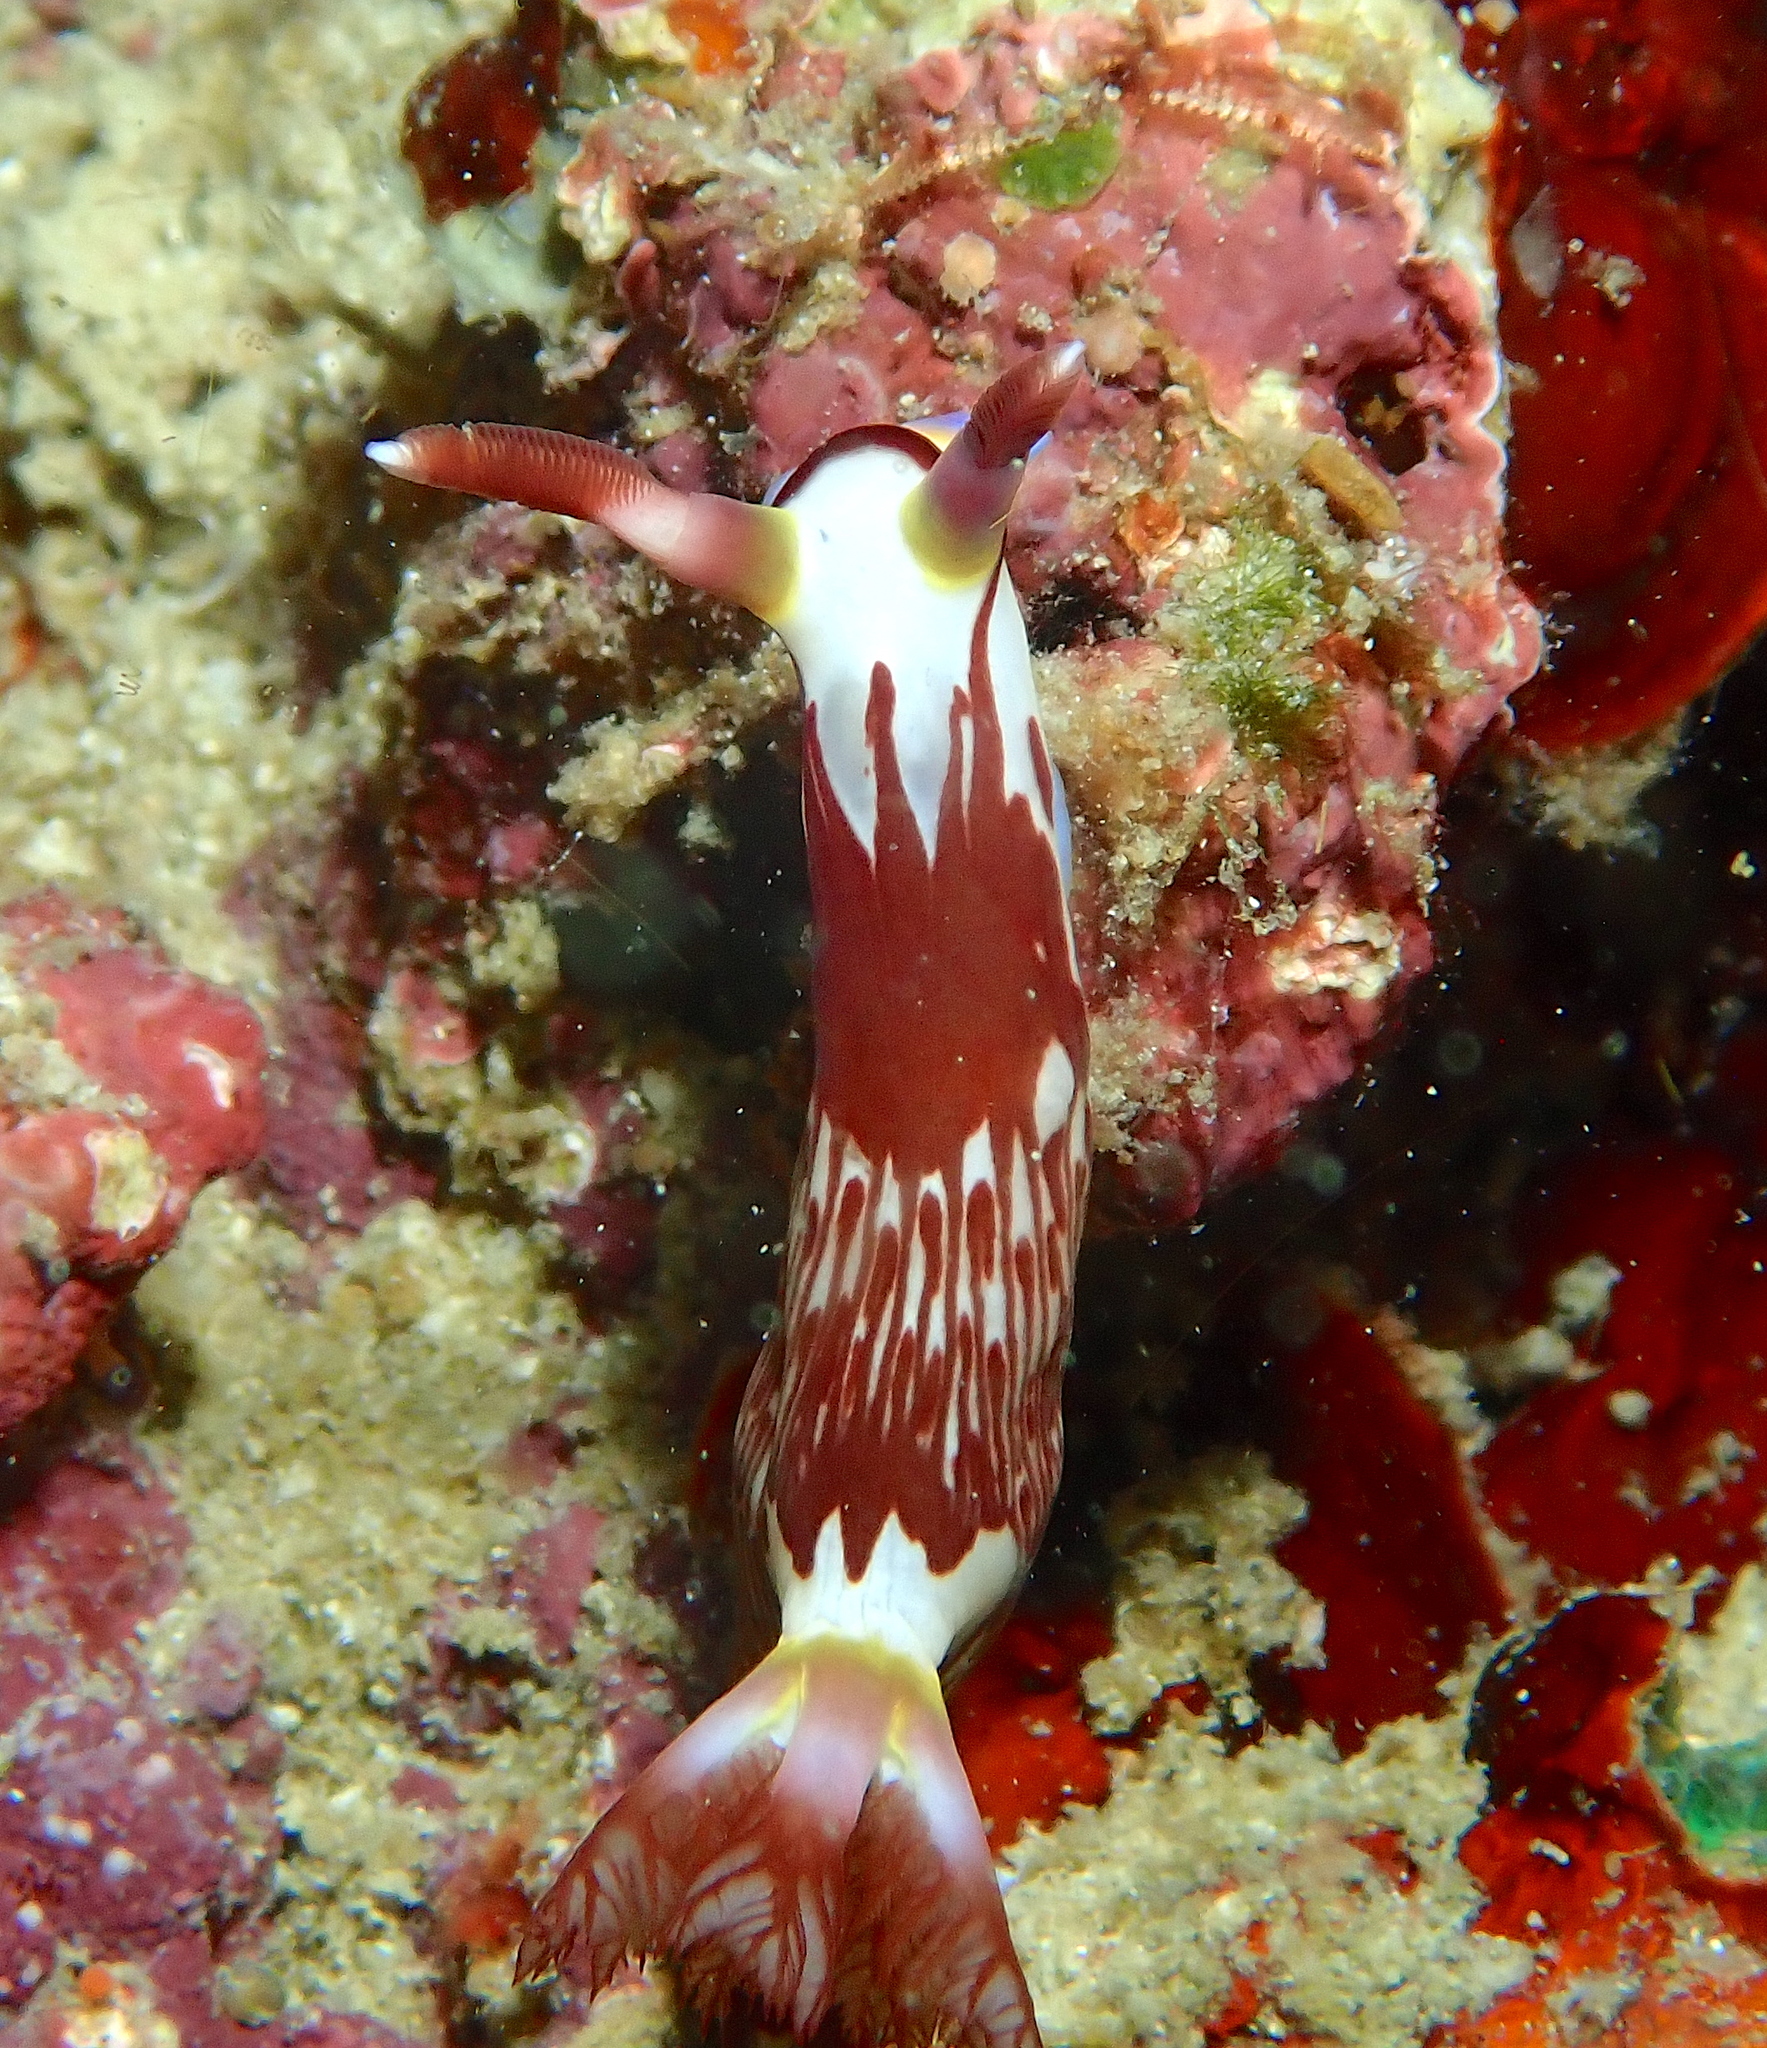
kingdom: Animalia
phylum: Mollusca
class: Gastropoda
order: Nudibranchia
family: Polyceridae
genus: Nembrotha
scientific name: Nembrotha lineolata
